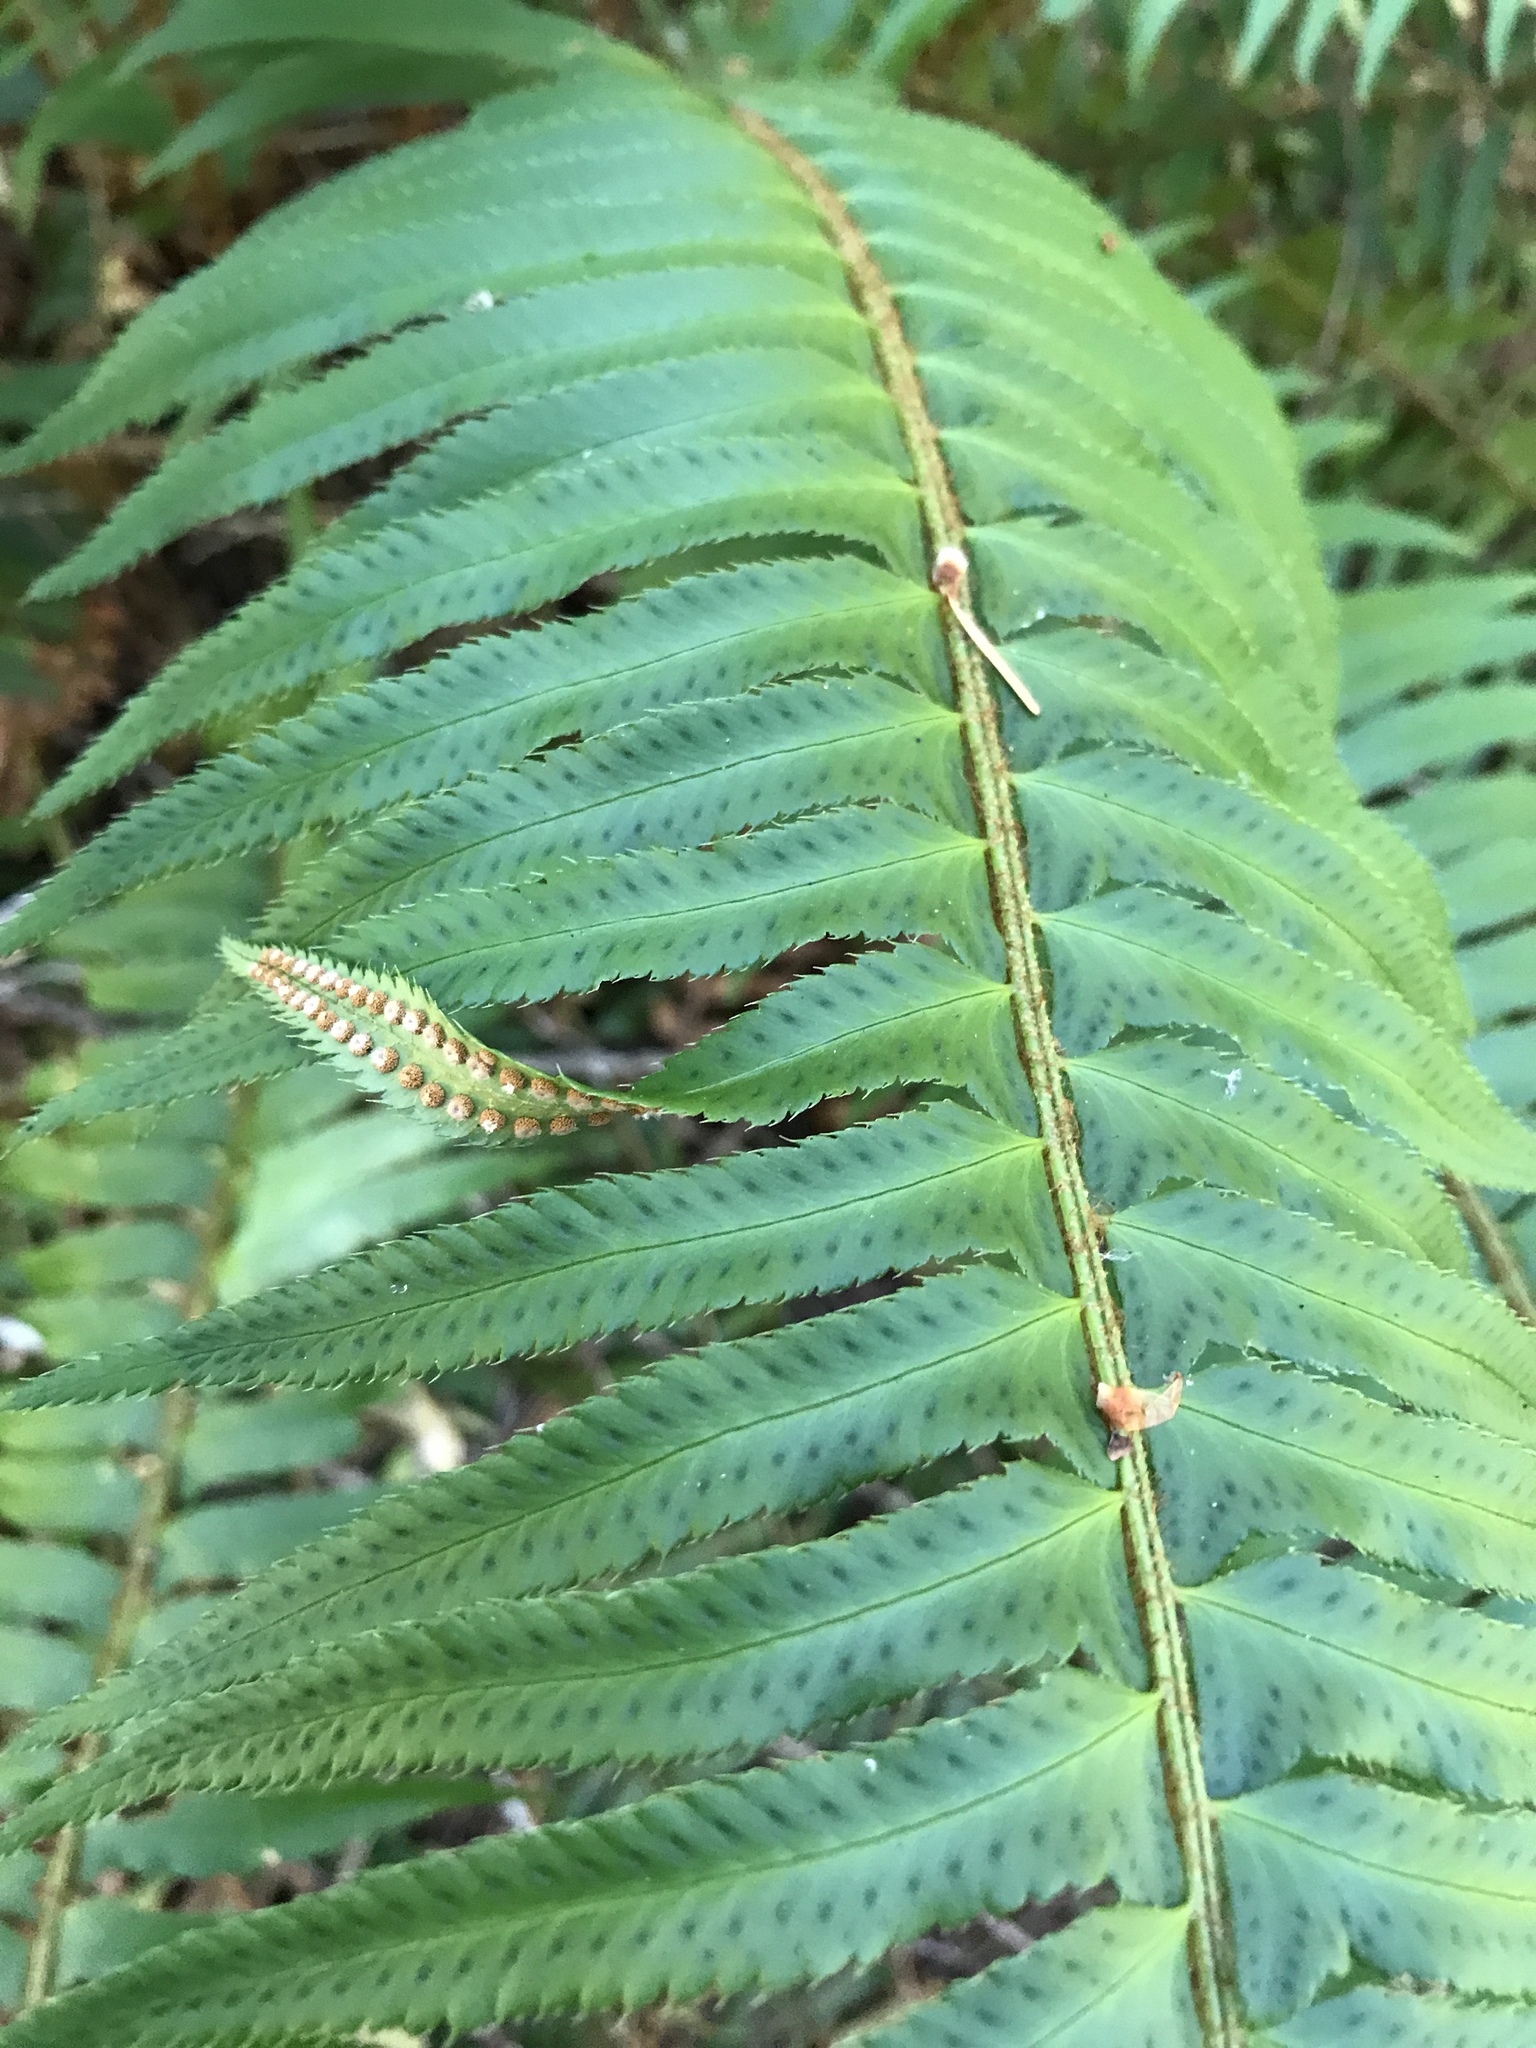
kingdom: Plantae
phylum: Tracheophyta
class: Polypodiopsida
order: Polypodiales
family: Dryopteridaceae
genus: Polystichum
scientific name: Polystichum munitum
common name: Western sword-fern
